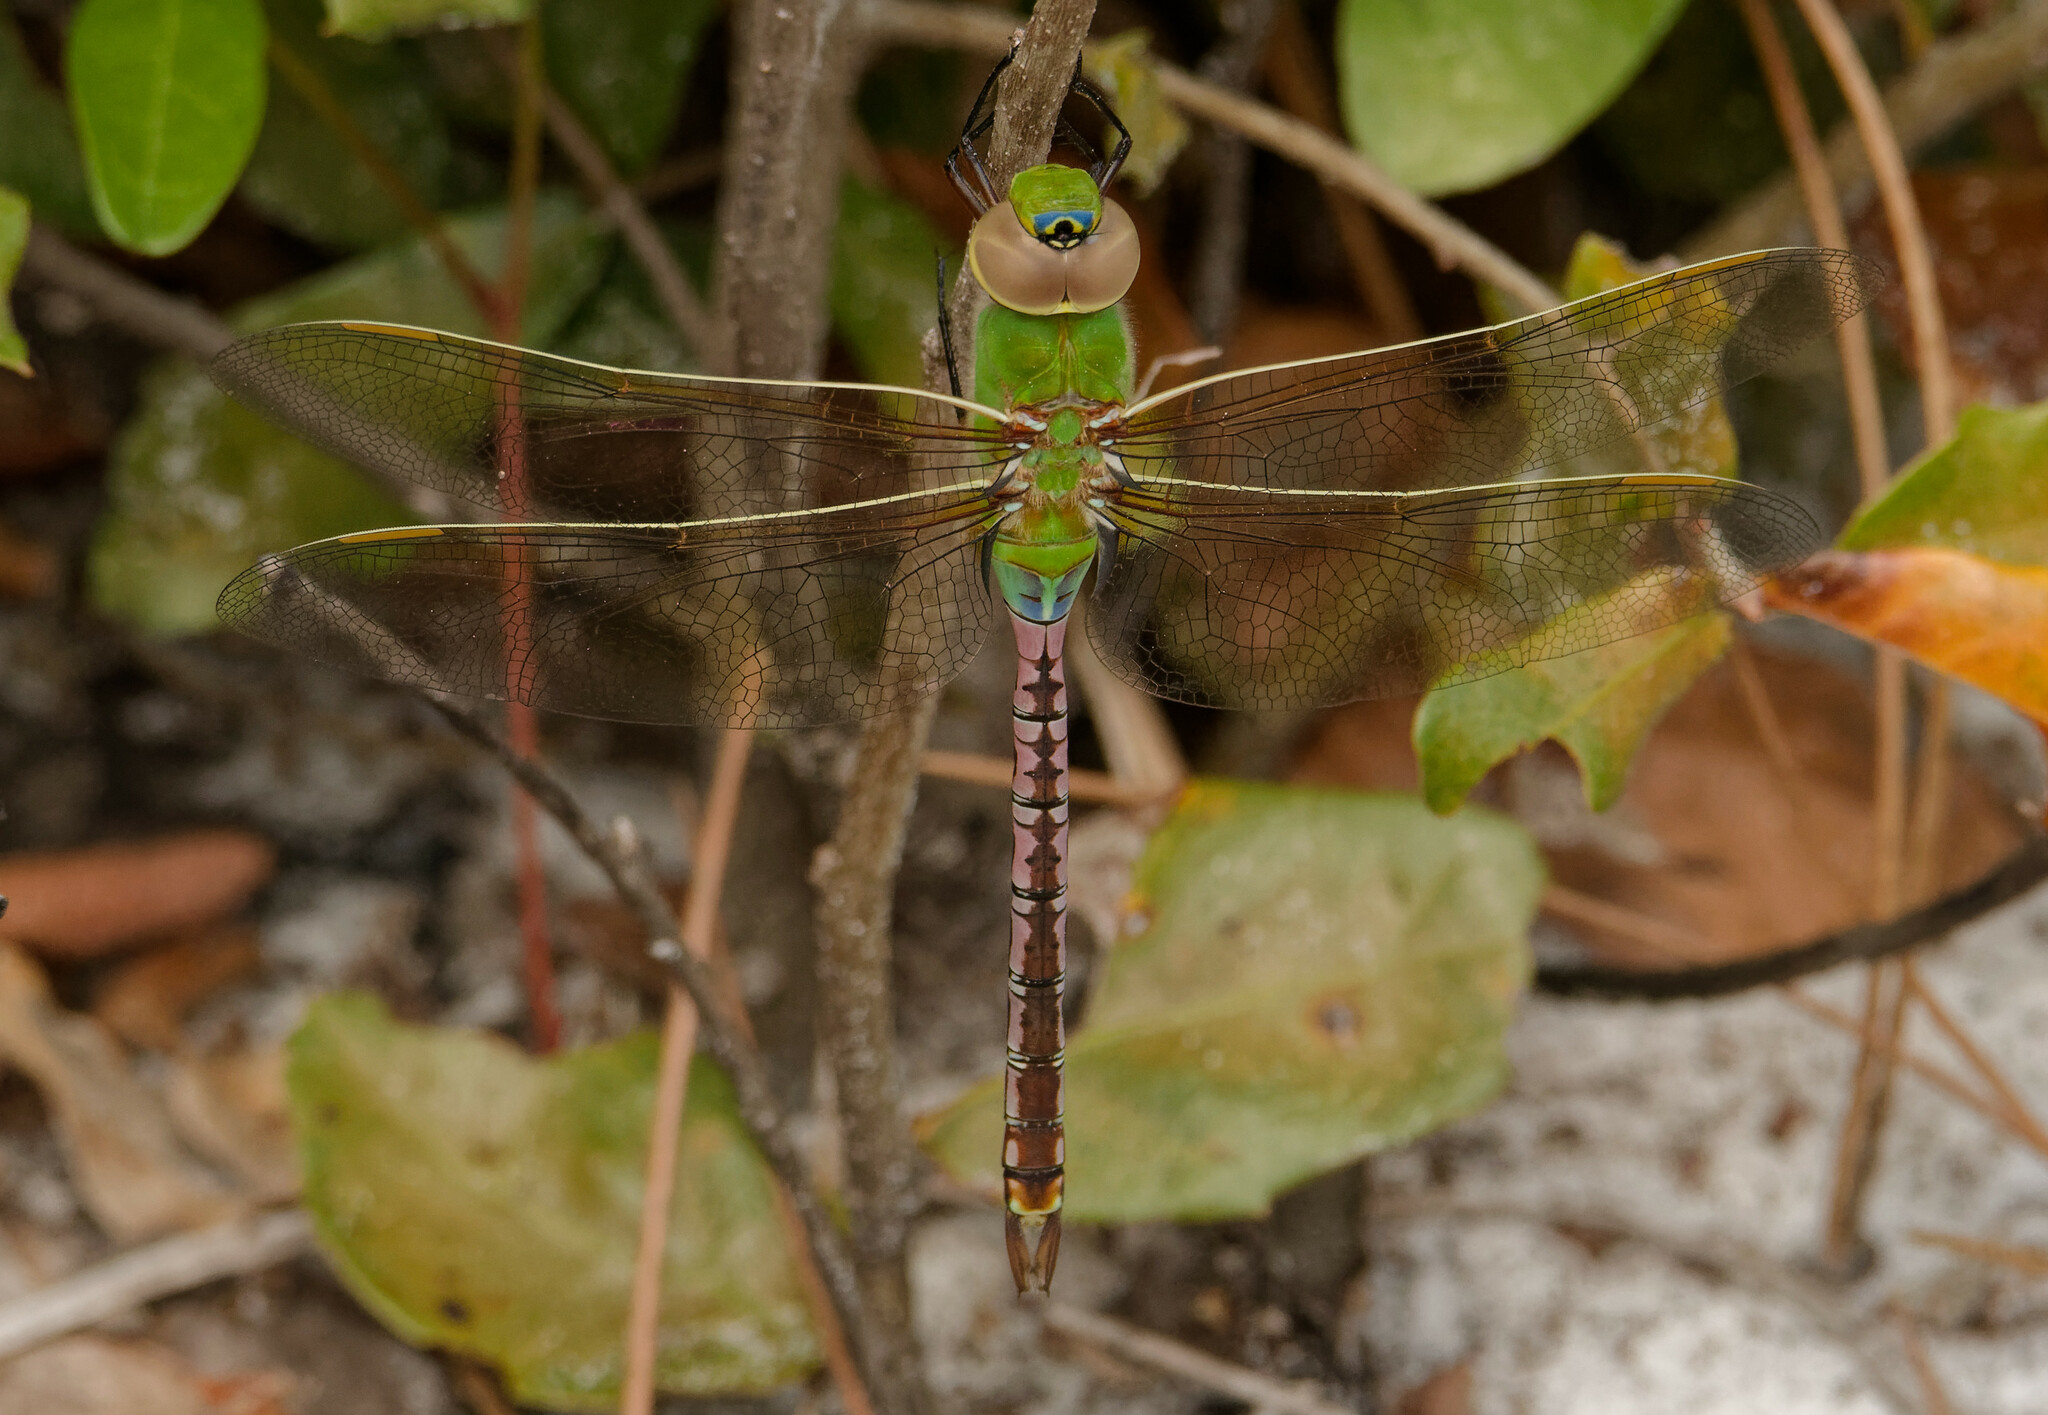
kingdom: Animalia
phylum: Arthropoda
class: Insecta
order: Odonata
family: Aeshnidae
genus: Anax
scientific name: Anax junius
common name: Common green darner
